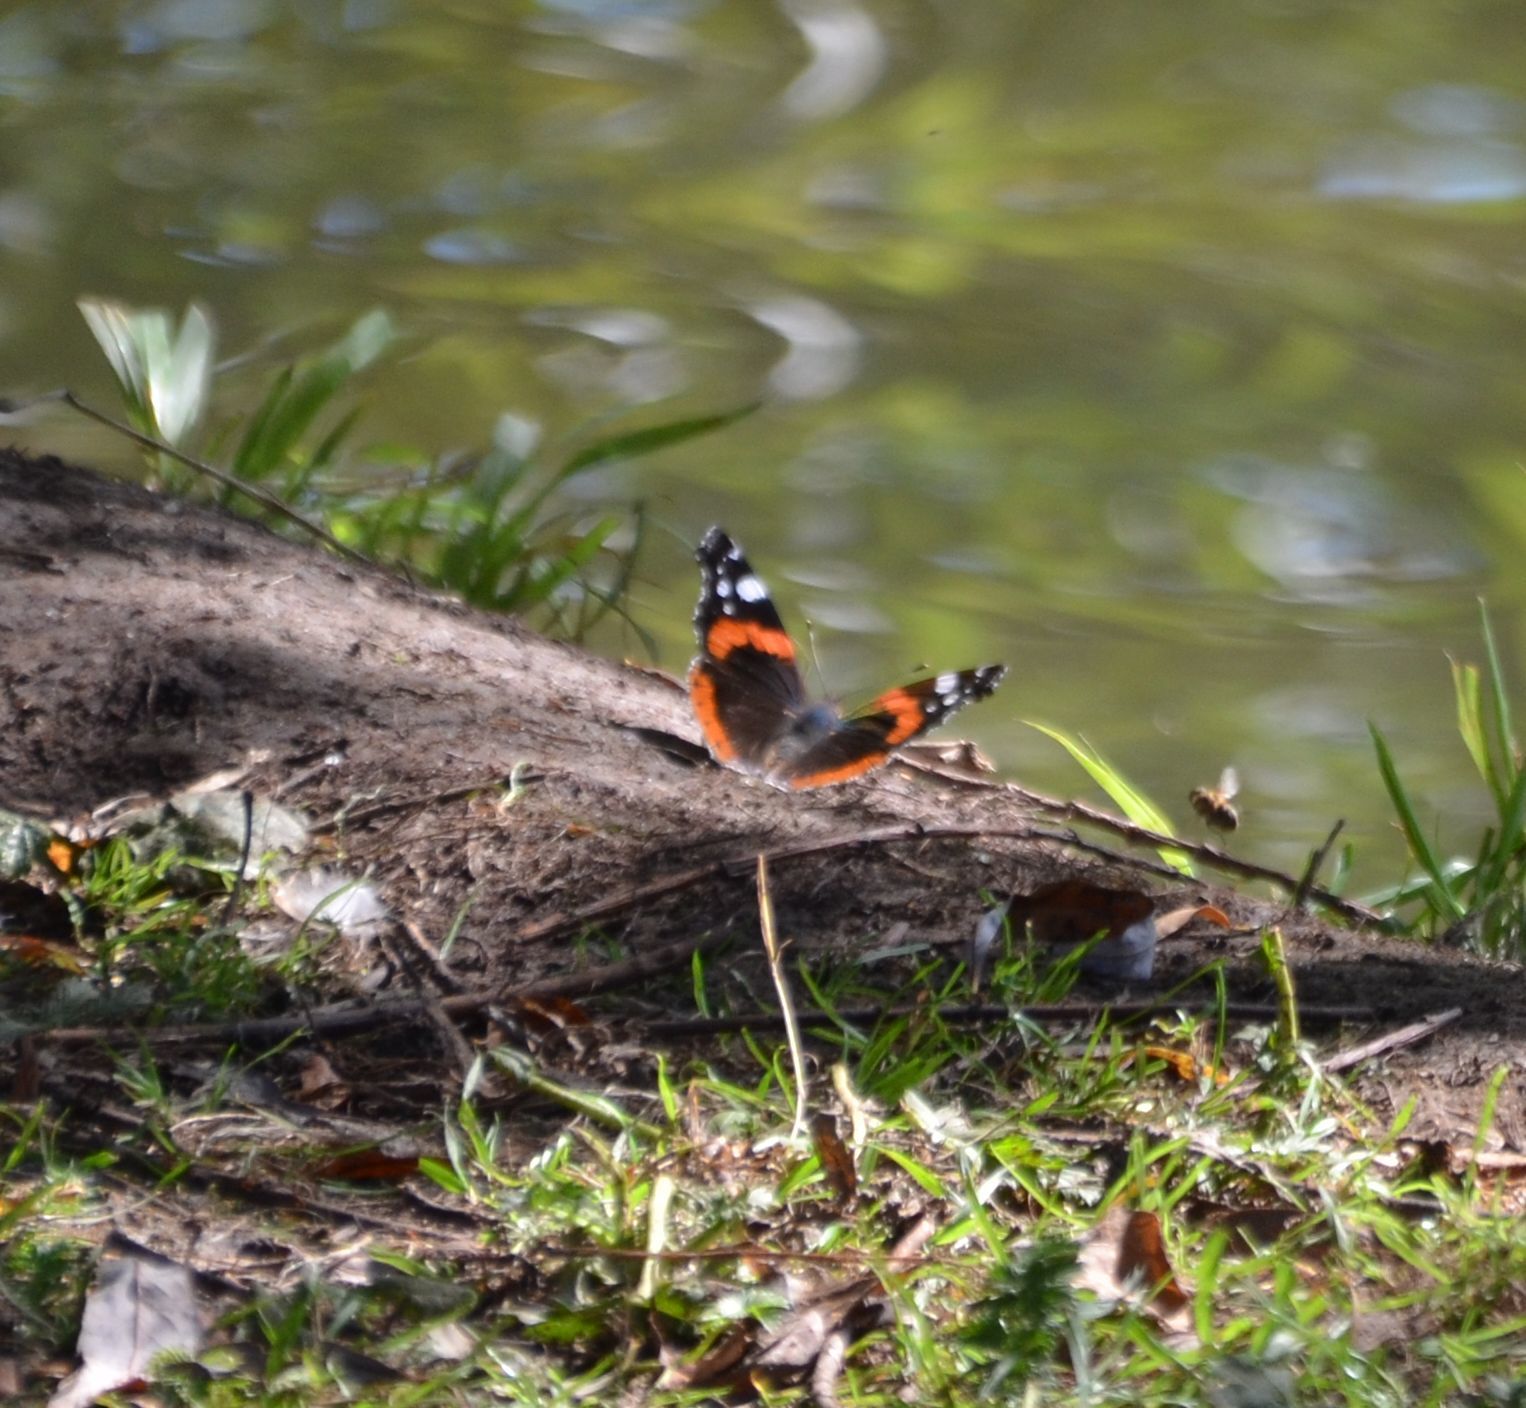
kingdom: Animalia
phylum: Arthropoda
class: Insecta
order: Lepidoptera
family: Nymphalidae
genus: Vanessa
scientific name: Vanessa atalanta
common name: Red admiral
